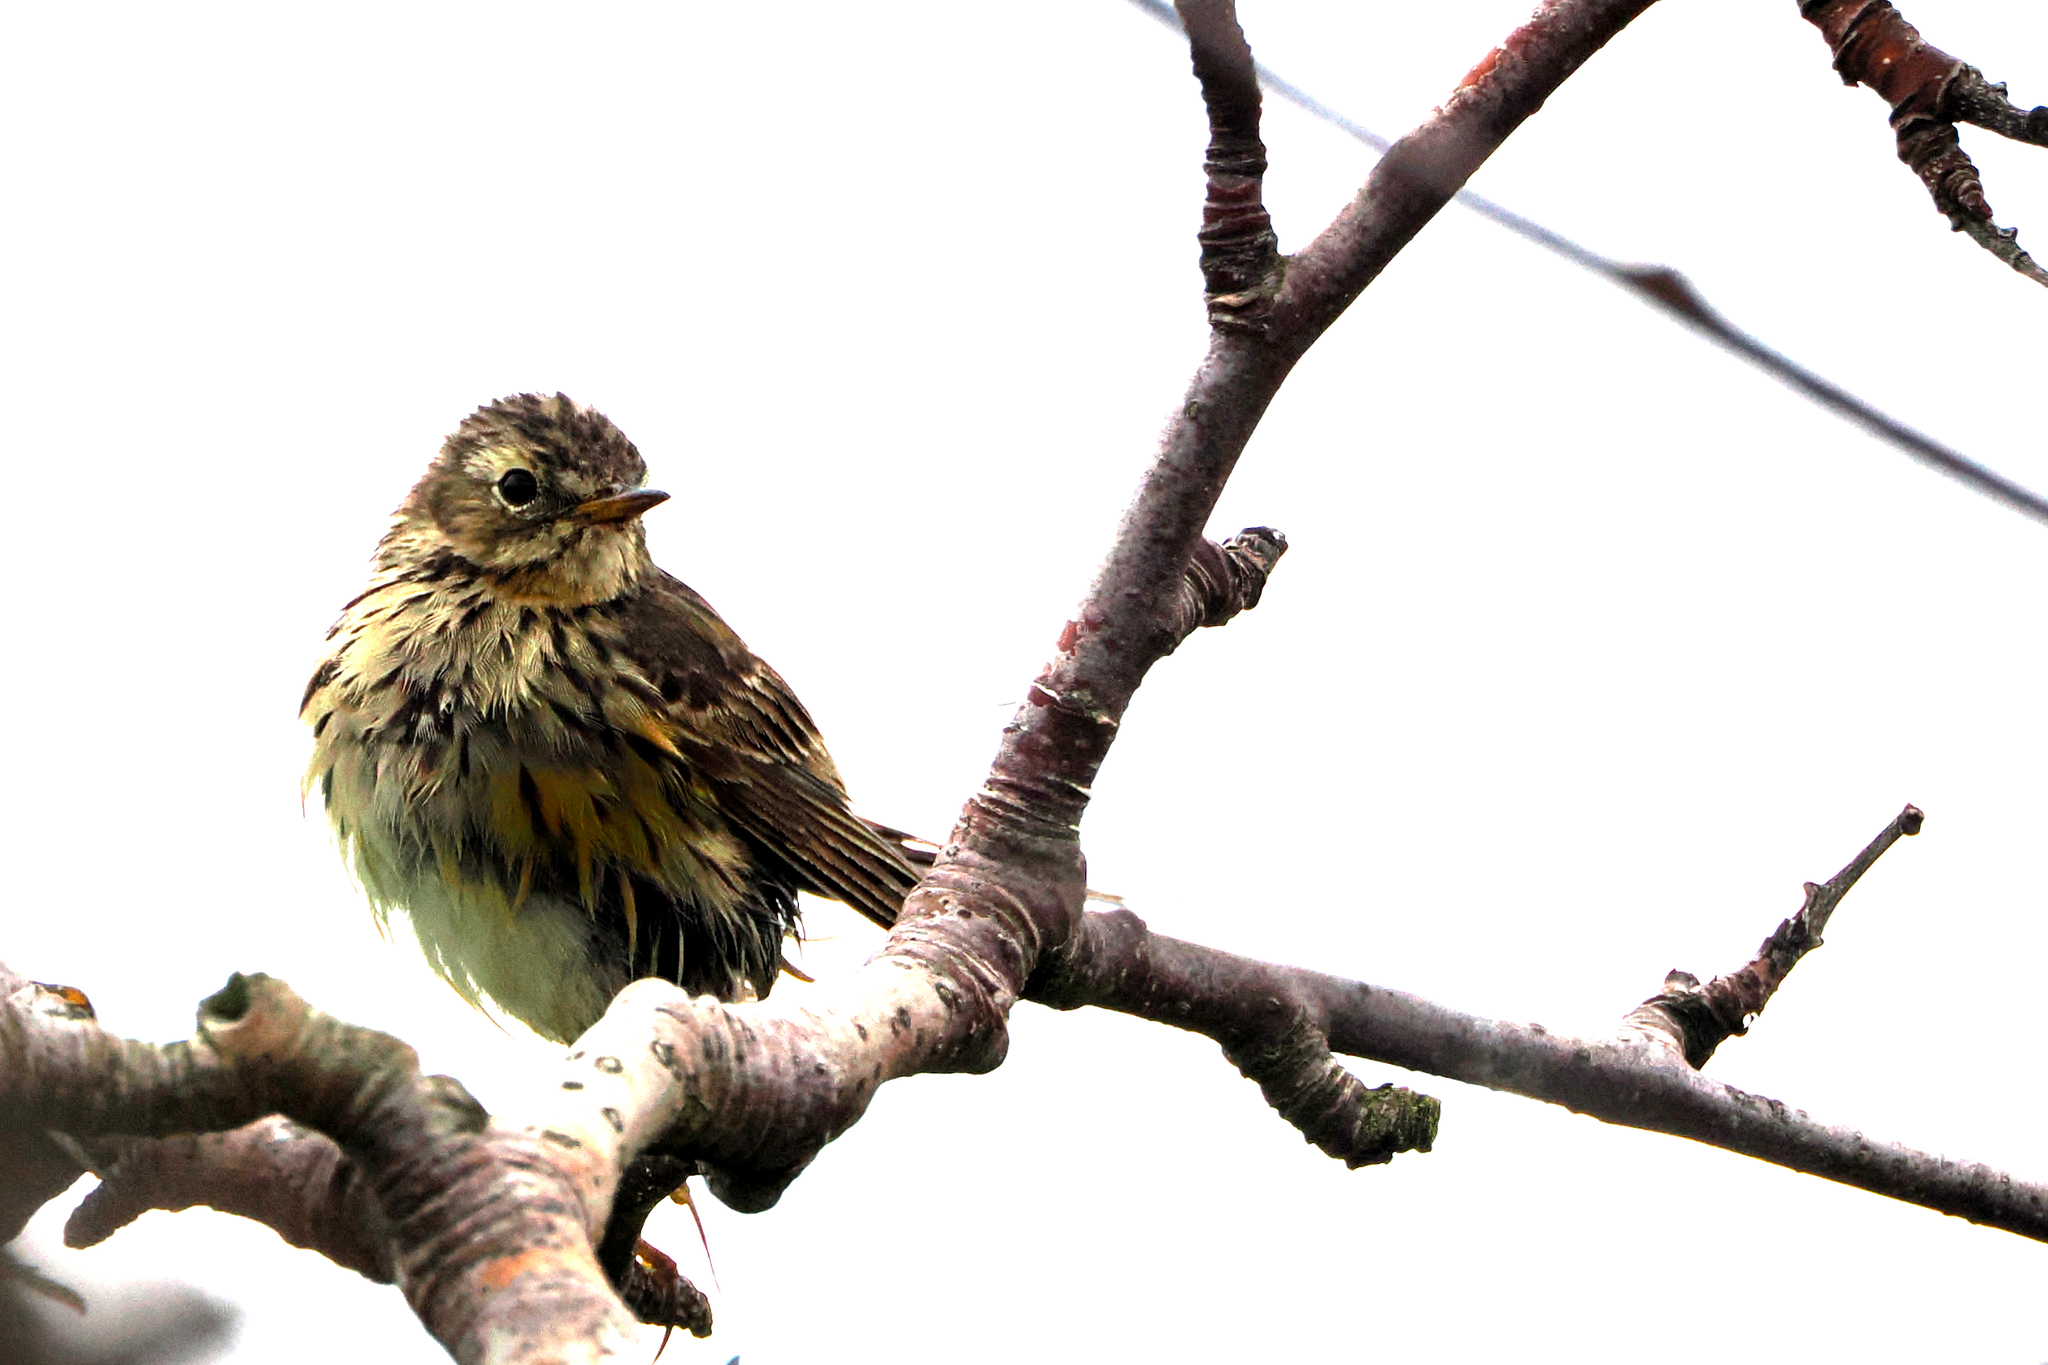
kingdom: Animalia
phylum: Chordata
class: Aves
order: Passeriformes
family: Motacillidae
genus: Anthus
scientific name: Anthus pratensis
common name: Meadow pipit
